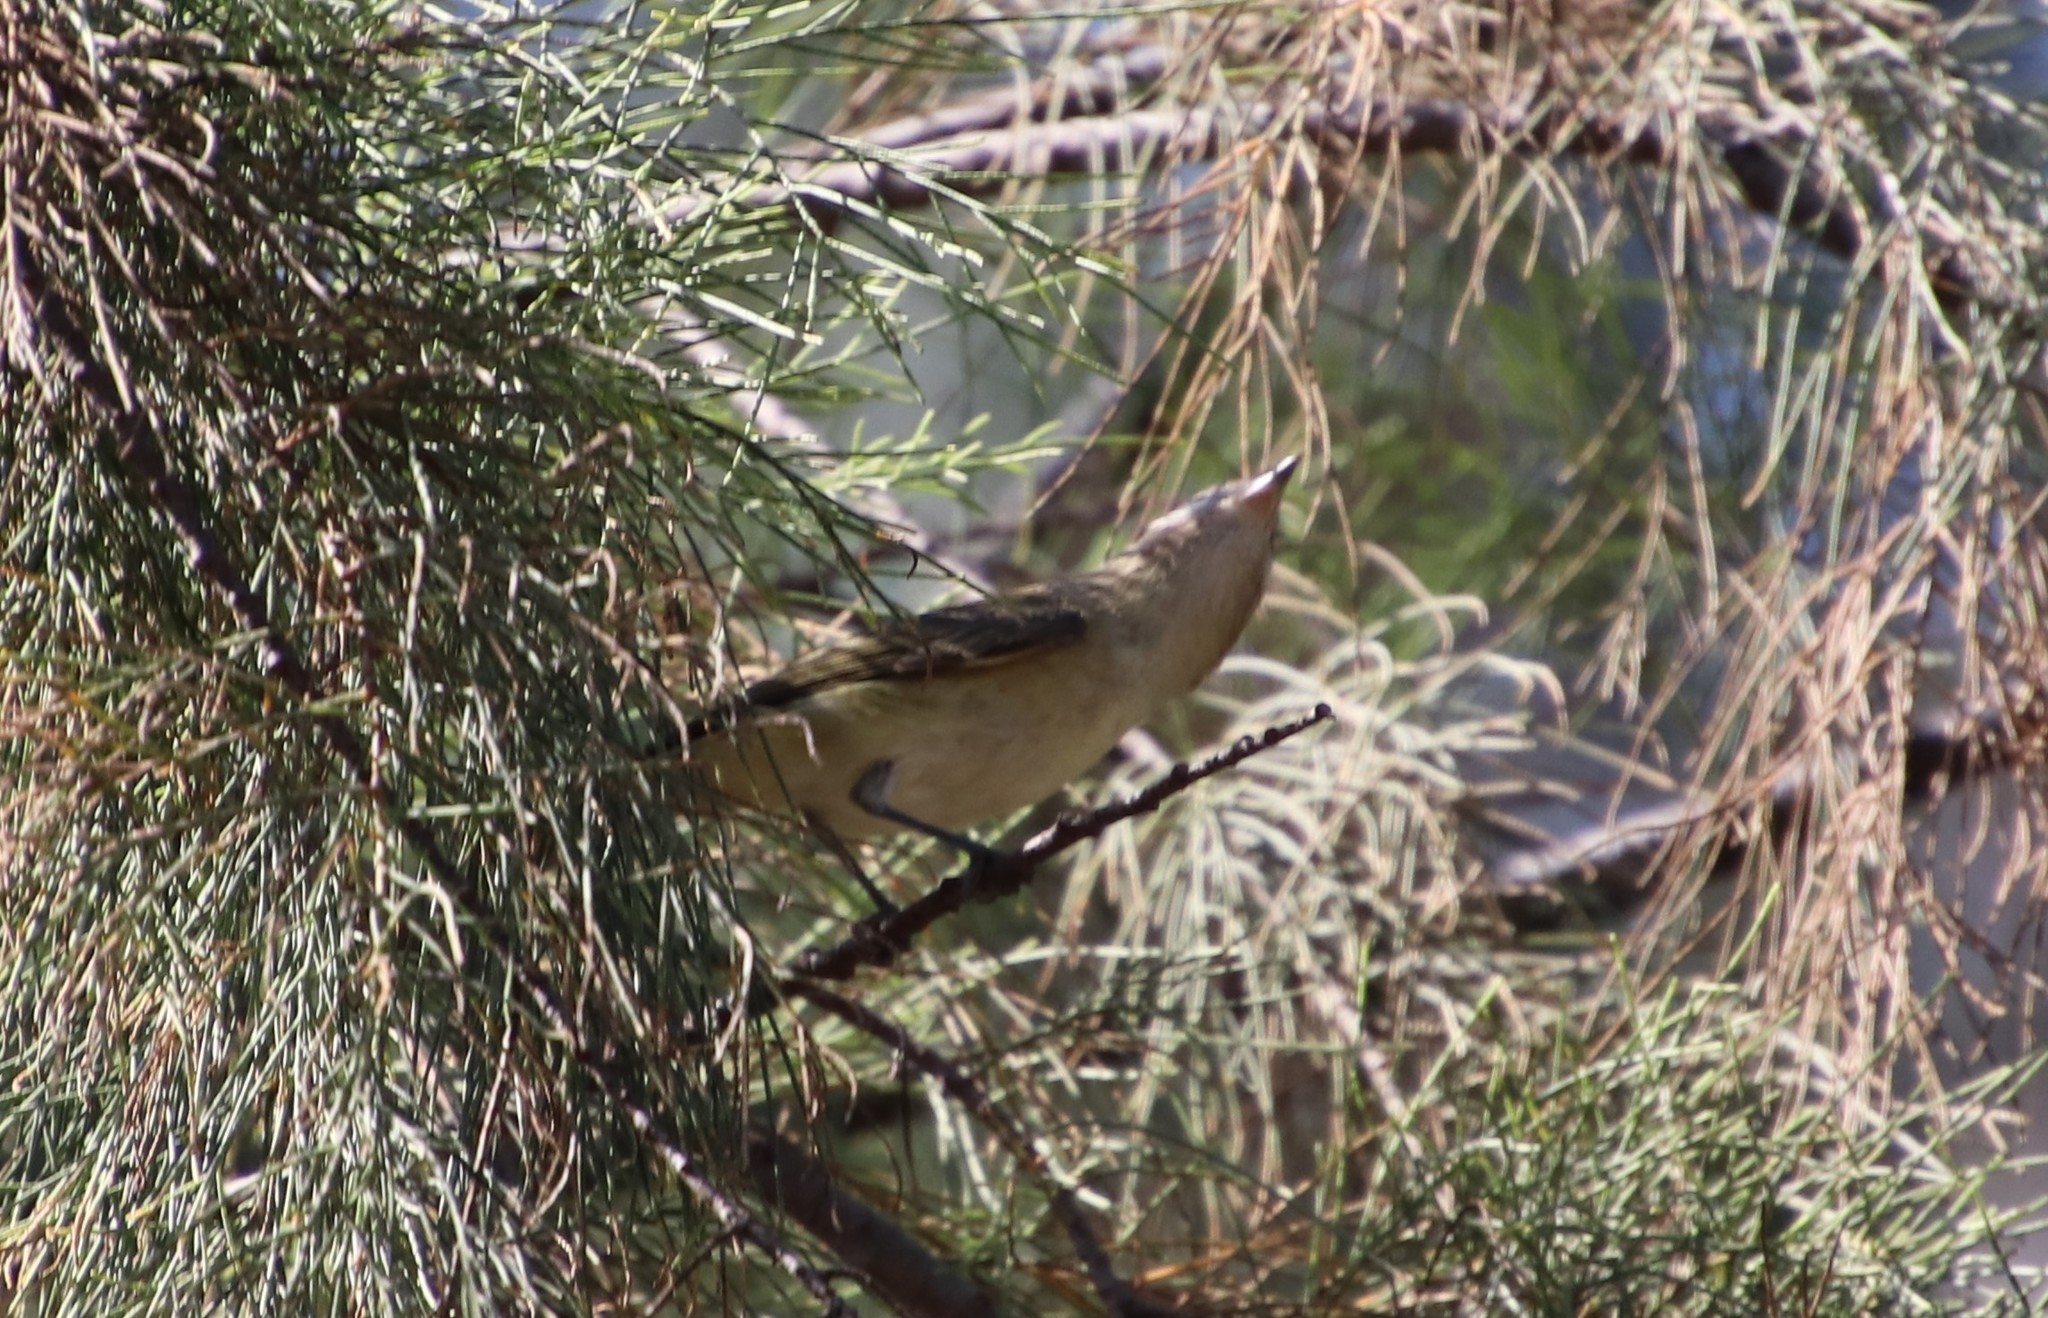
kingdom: Animalia
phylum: Chordata
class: Aves
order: Passeriformes
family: Vireonidae
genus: Vireo
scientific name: Vireo gilvus
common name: Warbling vireo
